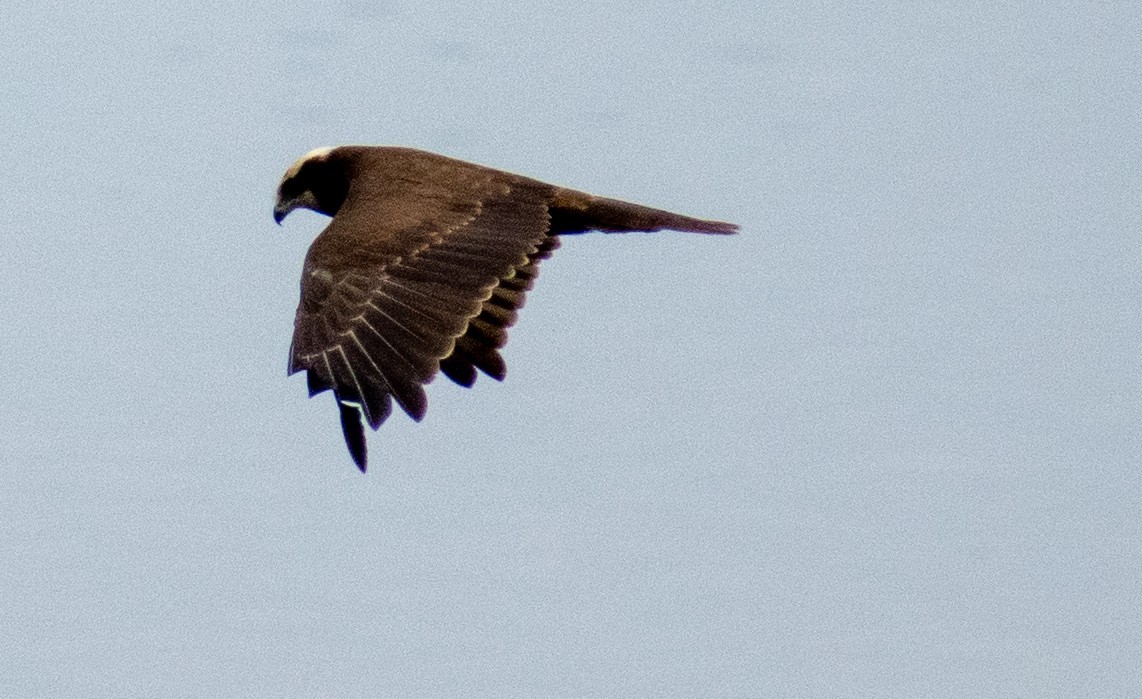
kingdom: Animalia
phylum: Chordata
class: Aves
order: Accipitriformes
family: Accipitridae
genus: Circus
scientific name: Circus aeruginosus
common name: Western marsh harrier
